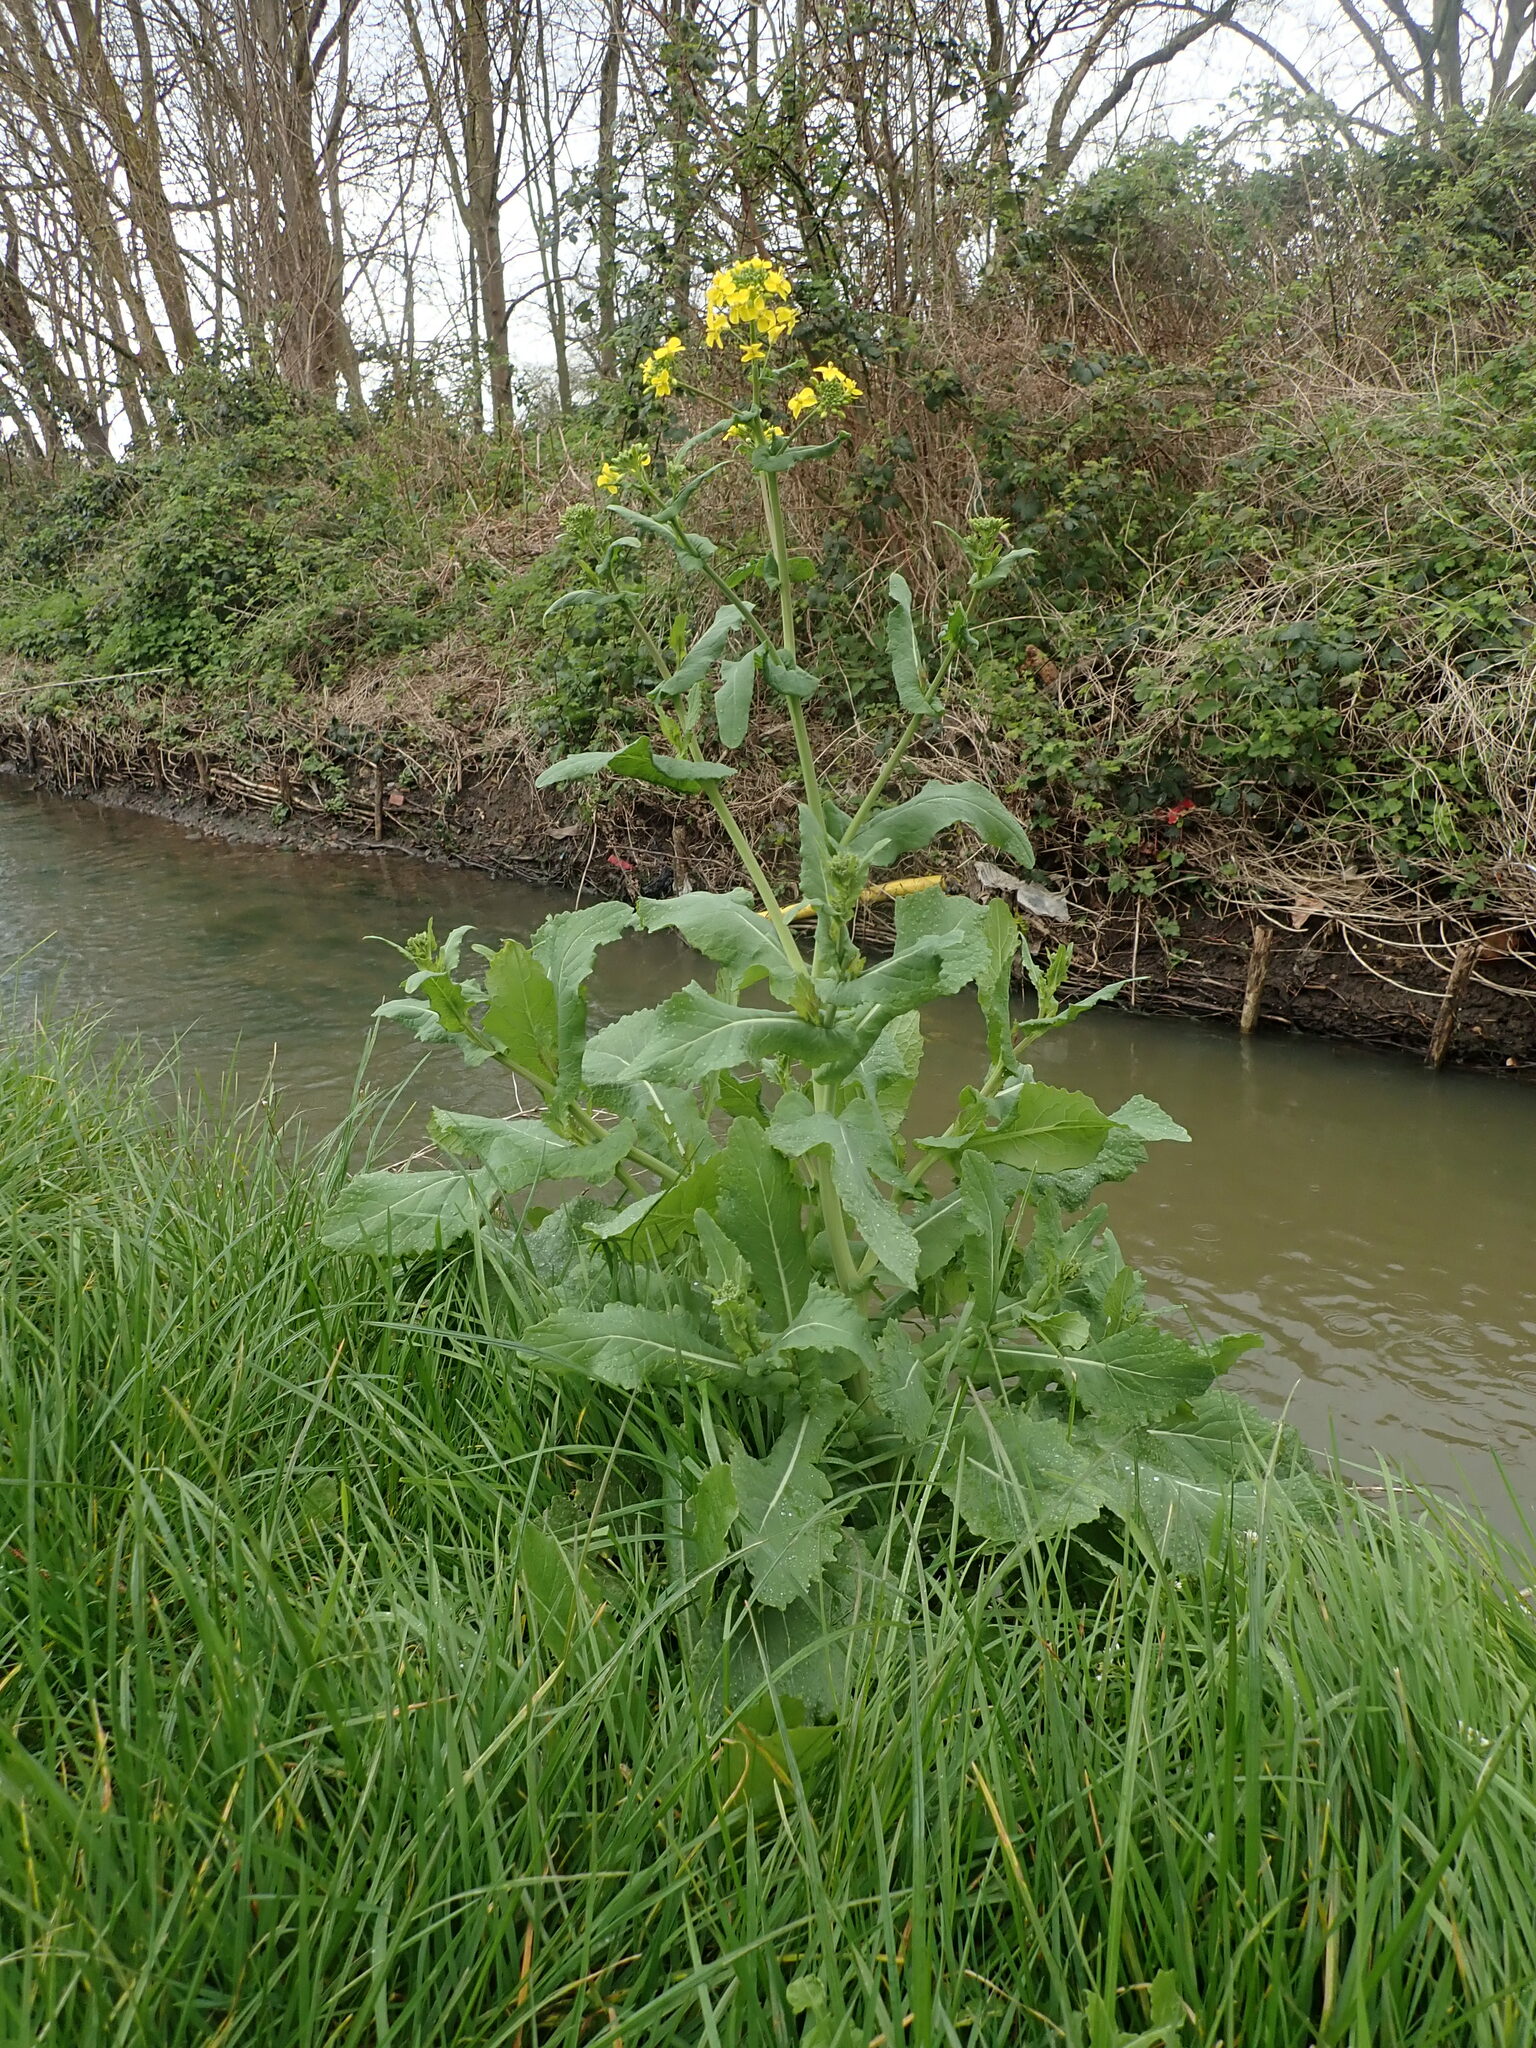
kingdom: Plantae
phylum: Tracheophyta
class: Magnoliopsida
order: Brassicales
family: Brassicaceae
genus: Brassica
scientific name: Brassica rapa
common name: Field mustard
